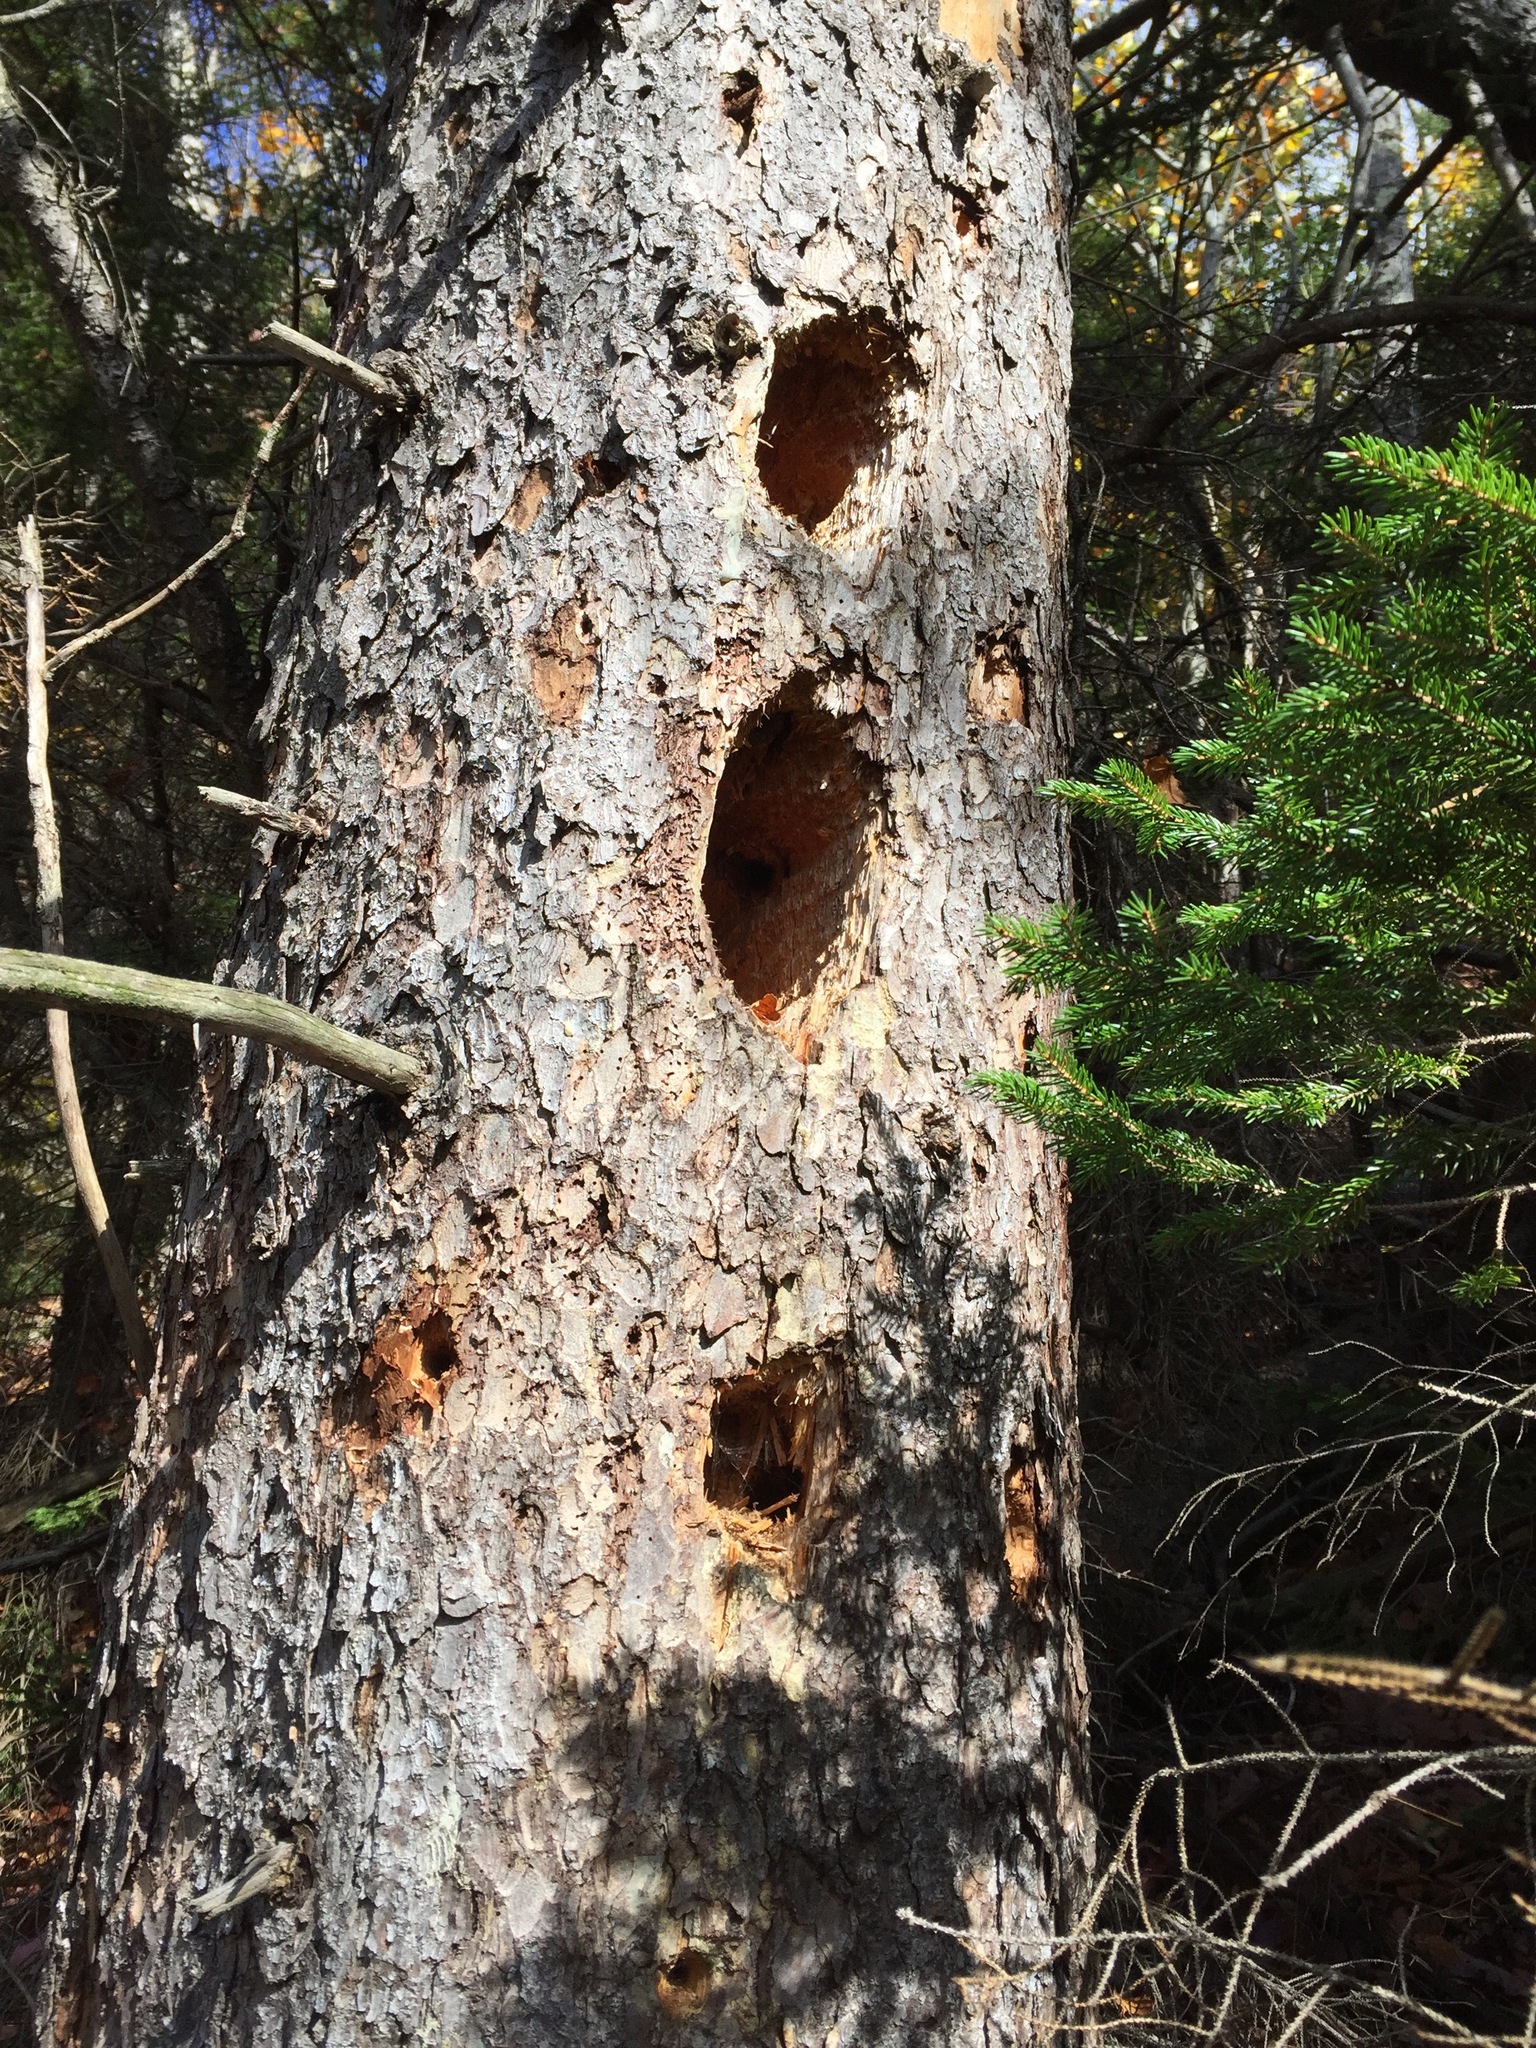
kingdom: Animalia
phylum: Chordata
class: Aves
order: Piciformes
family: Picidae
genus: Dryocopus
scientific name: Dryocopus pileatus
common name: Pileated woodpecker
